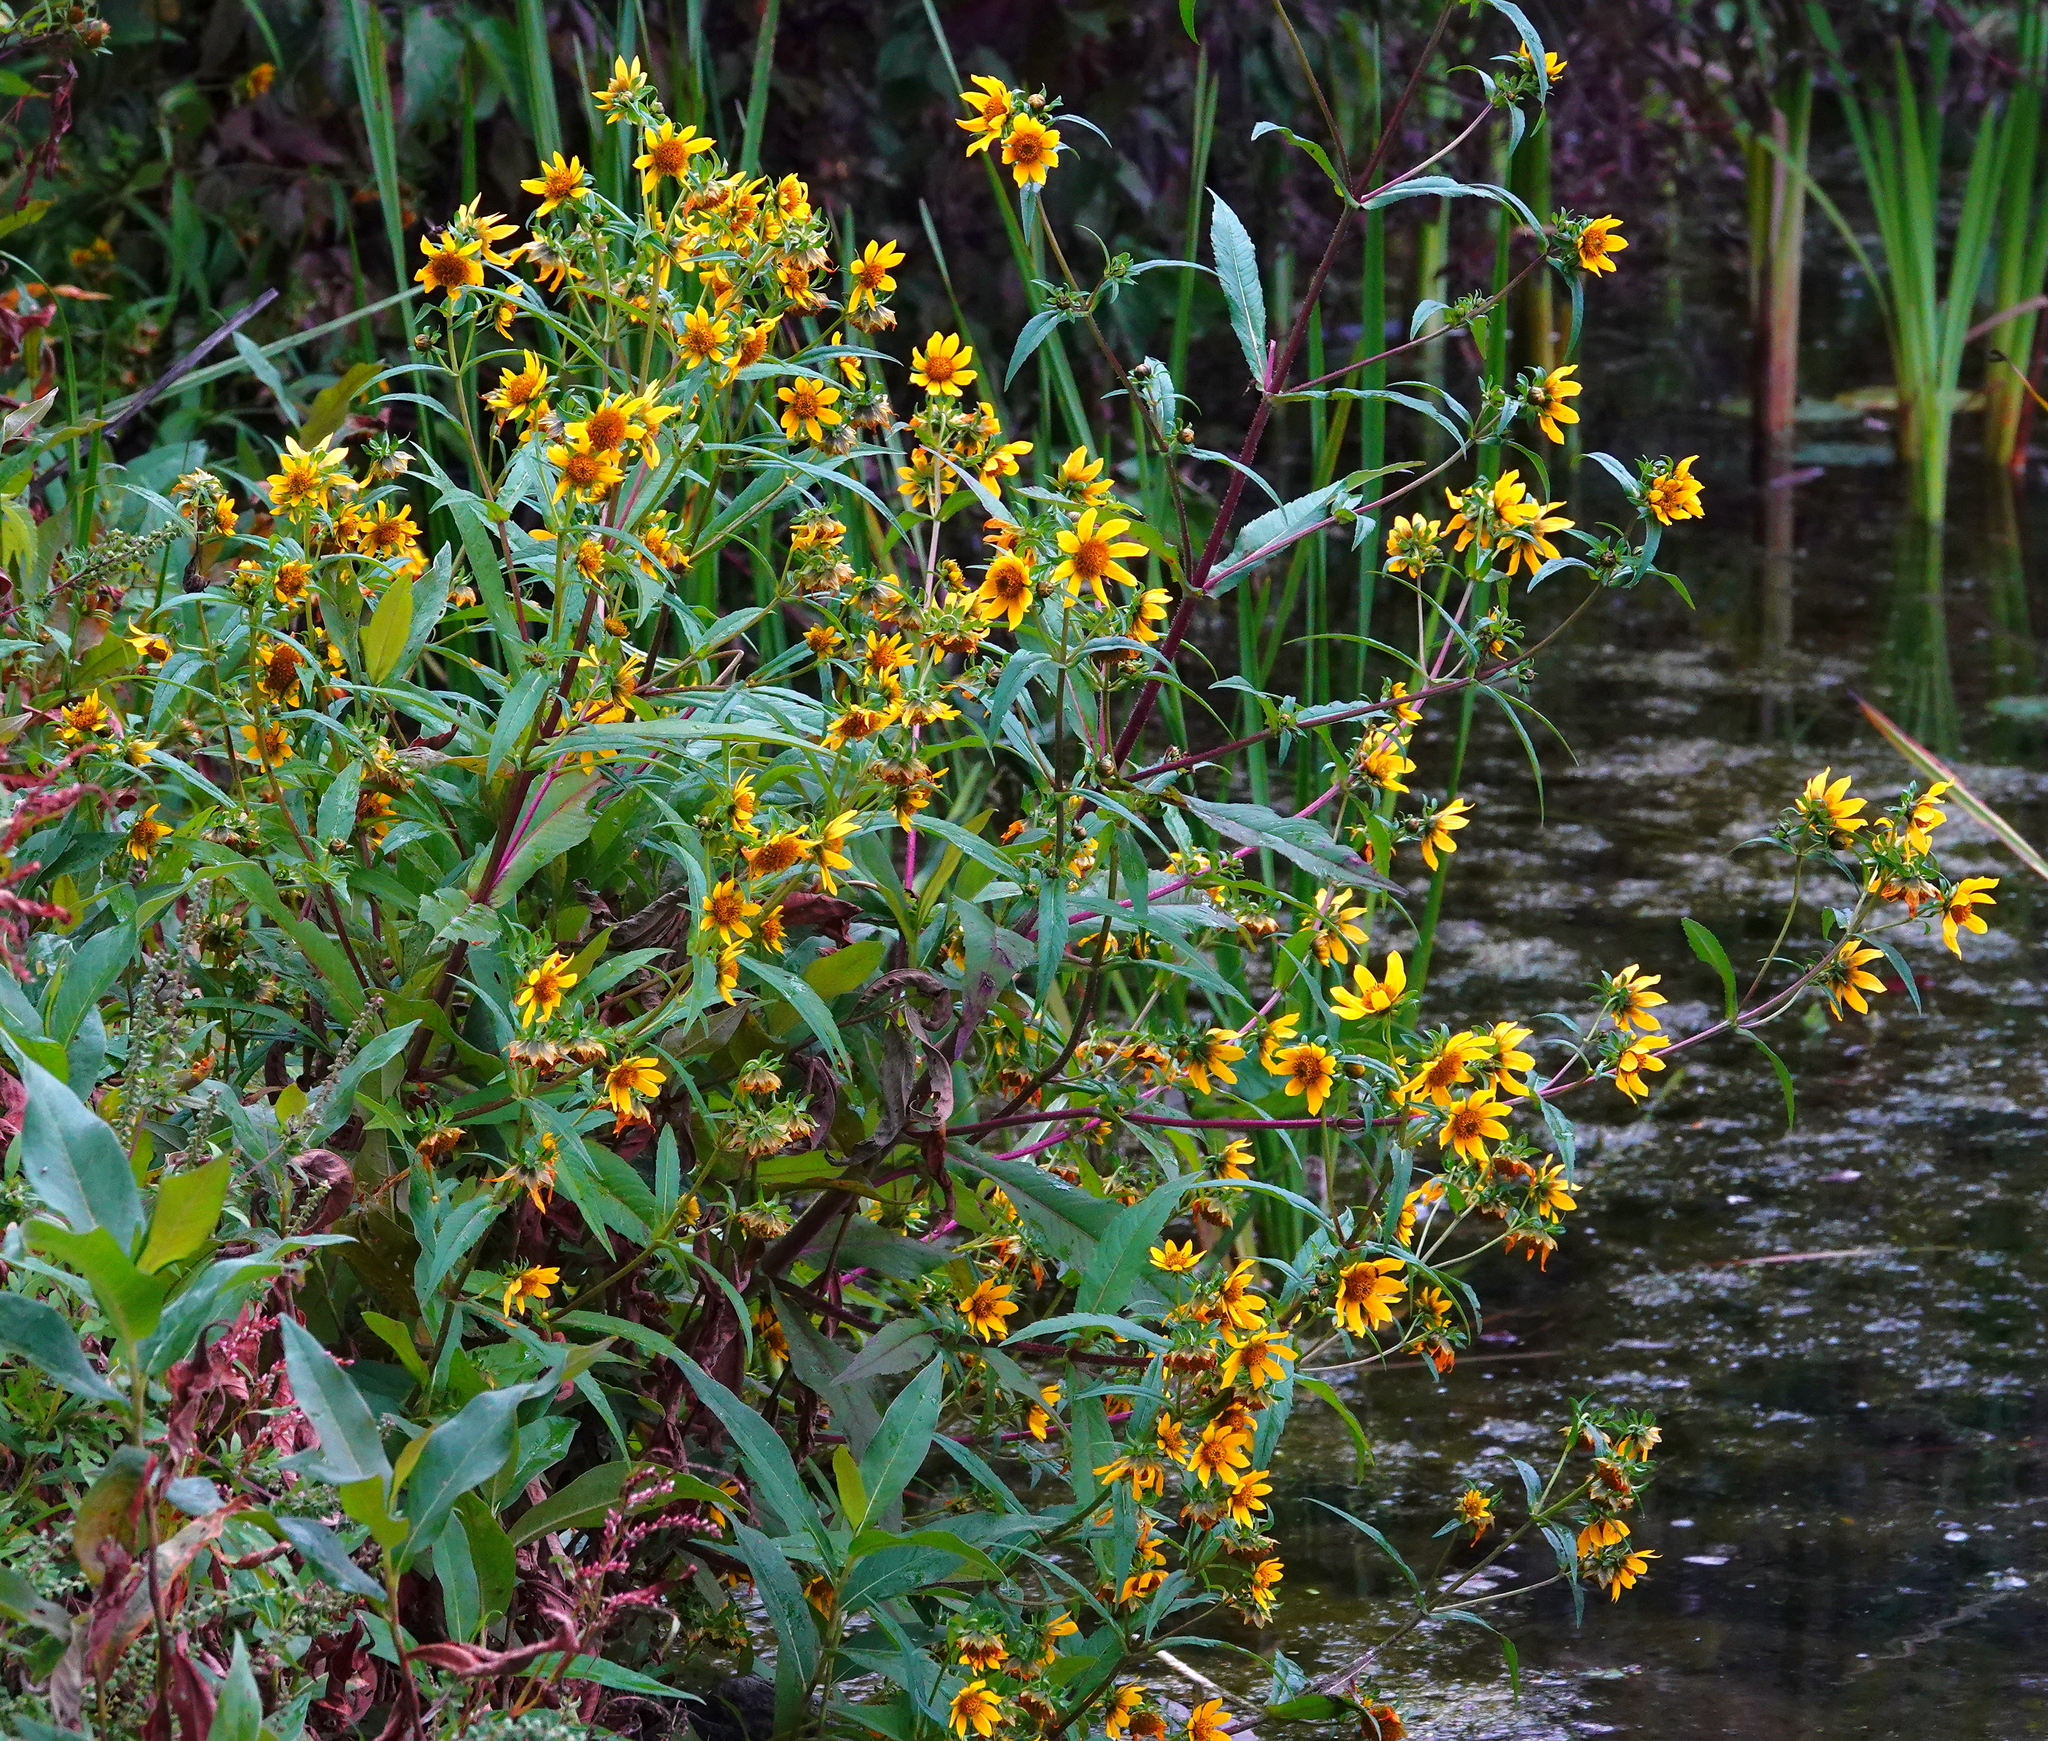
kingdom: Plantae
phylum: Tracheophyta
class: Magnoliopsida
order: Asterales
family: Asteraceae
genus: Bidens
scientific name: Bidens cernua
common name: Nodding bur-marigold
